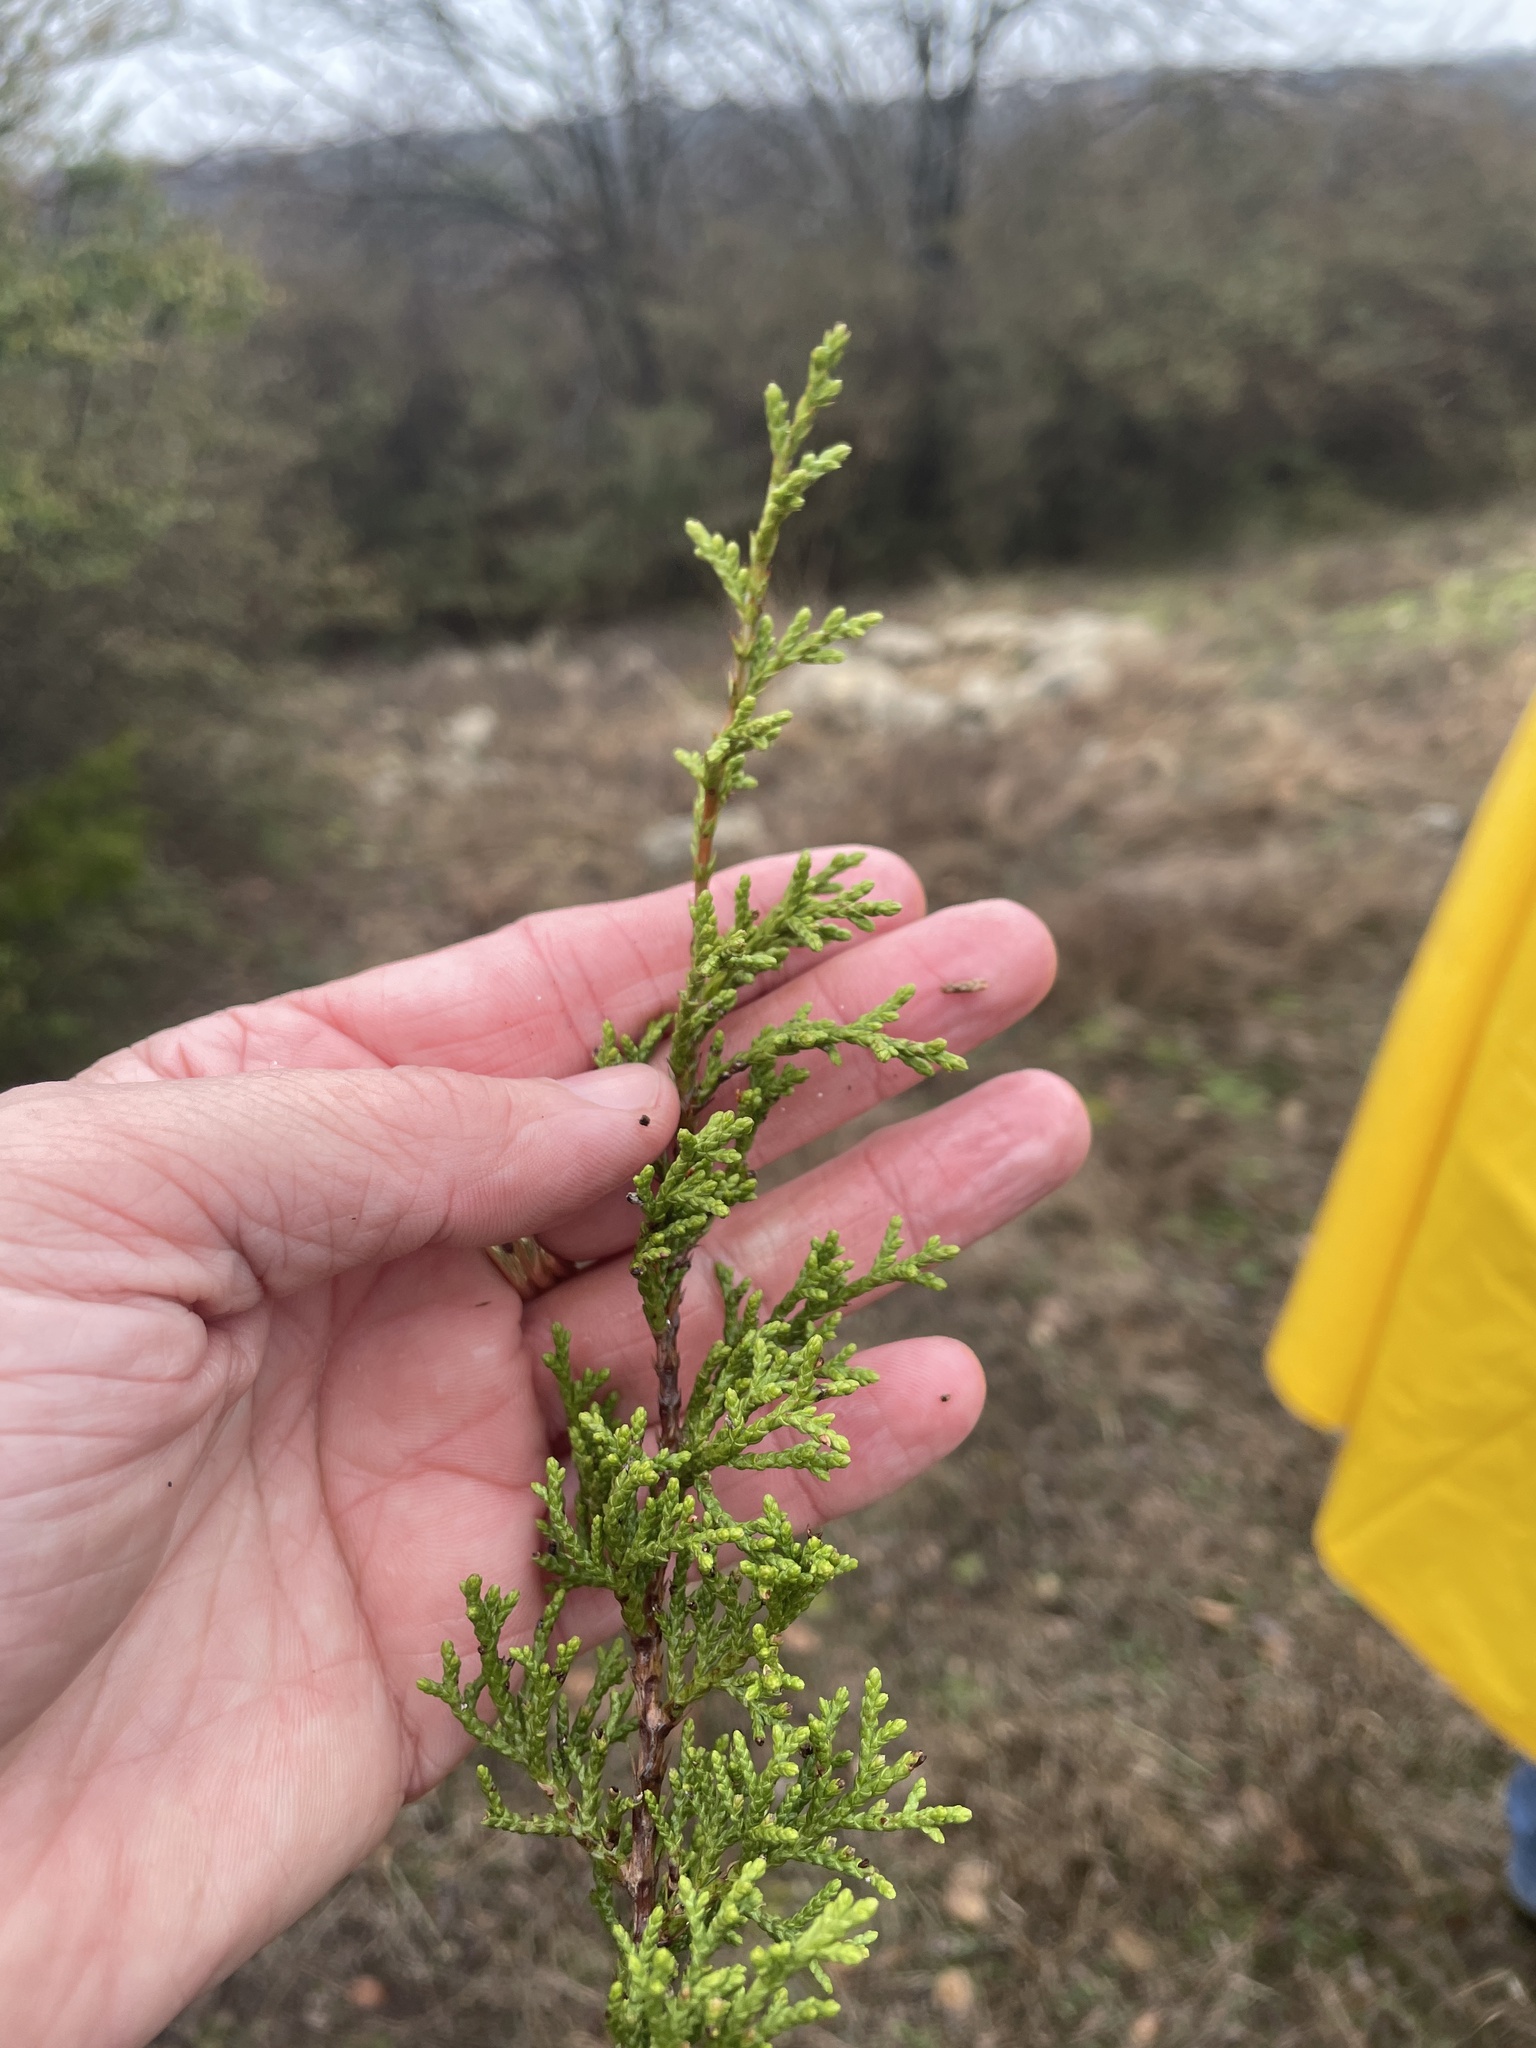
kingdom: Plantae
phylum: Tracheophyta
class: Pinopsida
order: Pinales
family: Cupressaceae
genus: Juniperus
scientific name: Juniperus virginiana
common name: Red juniper
